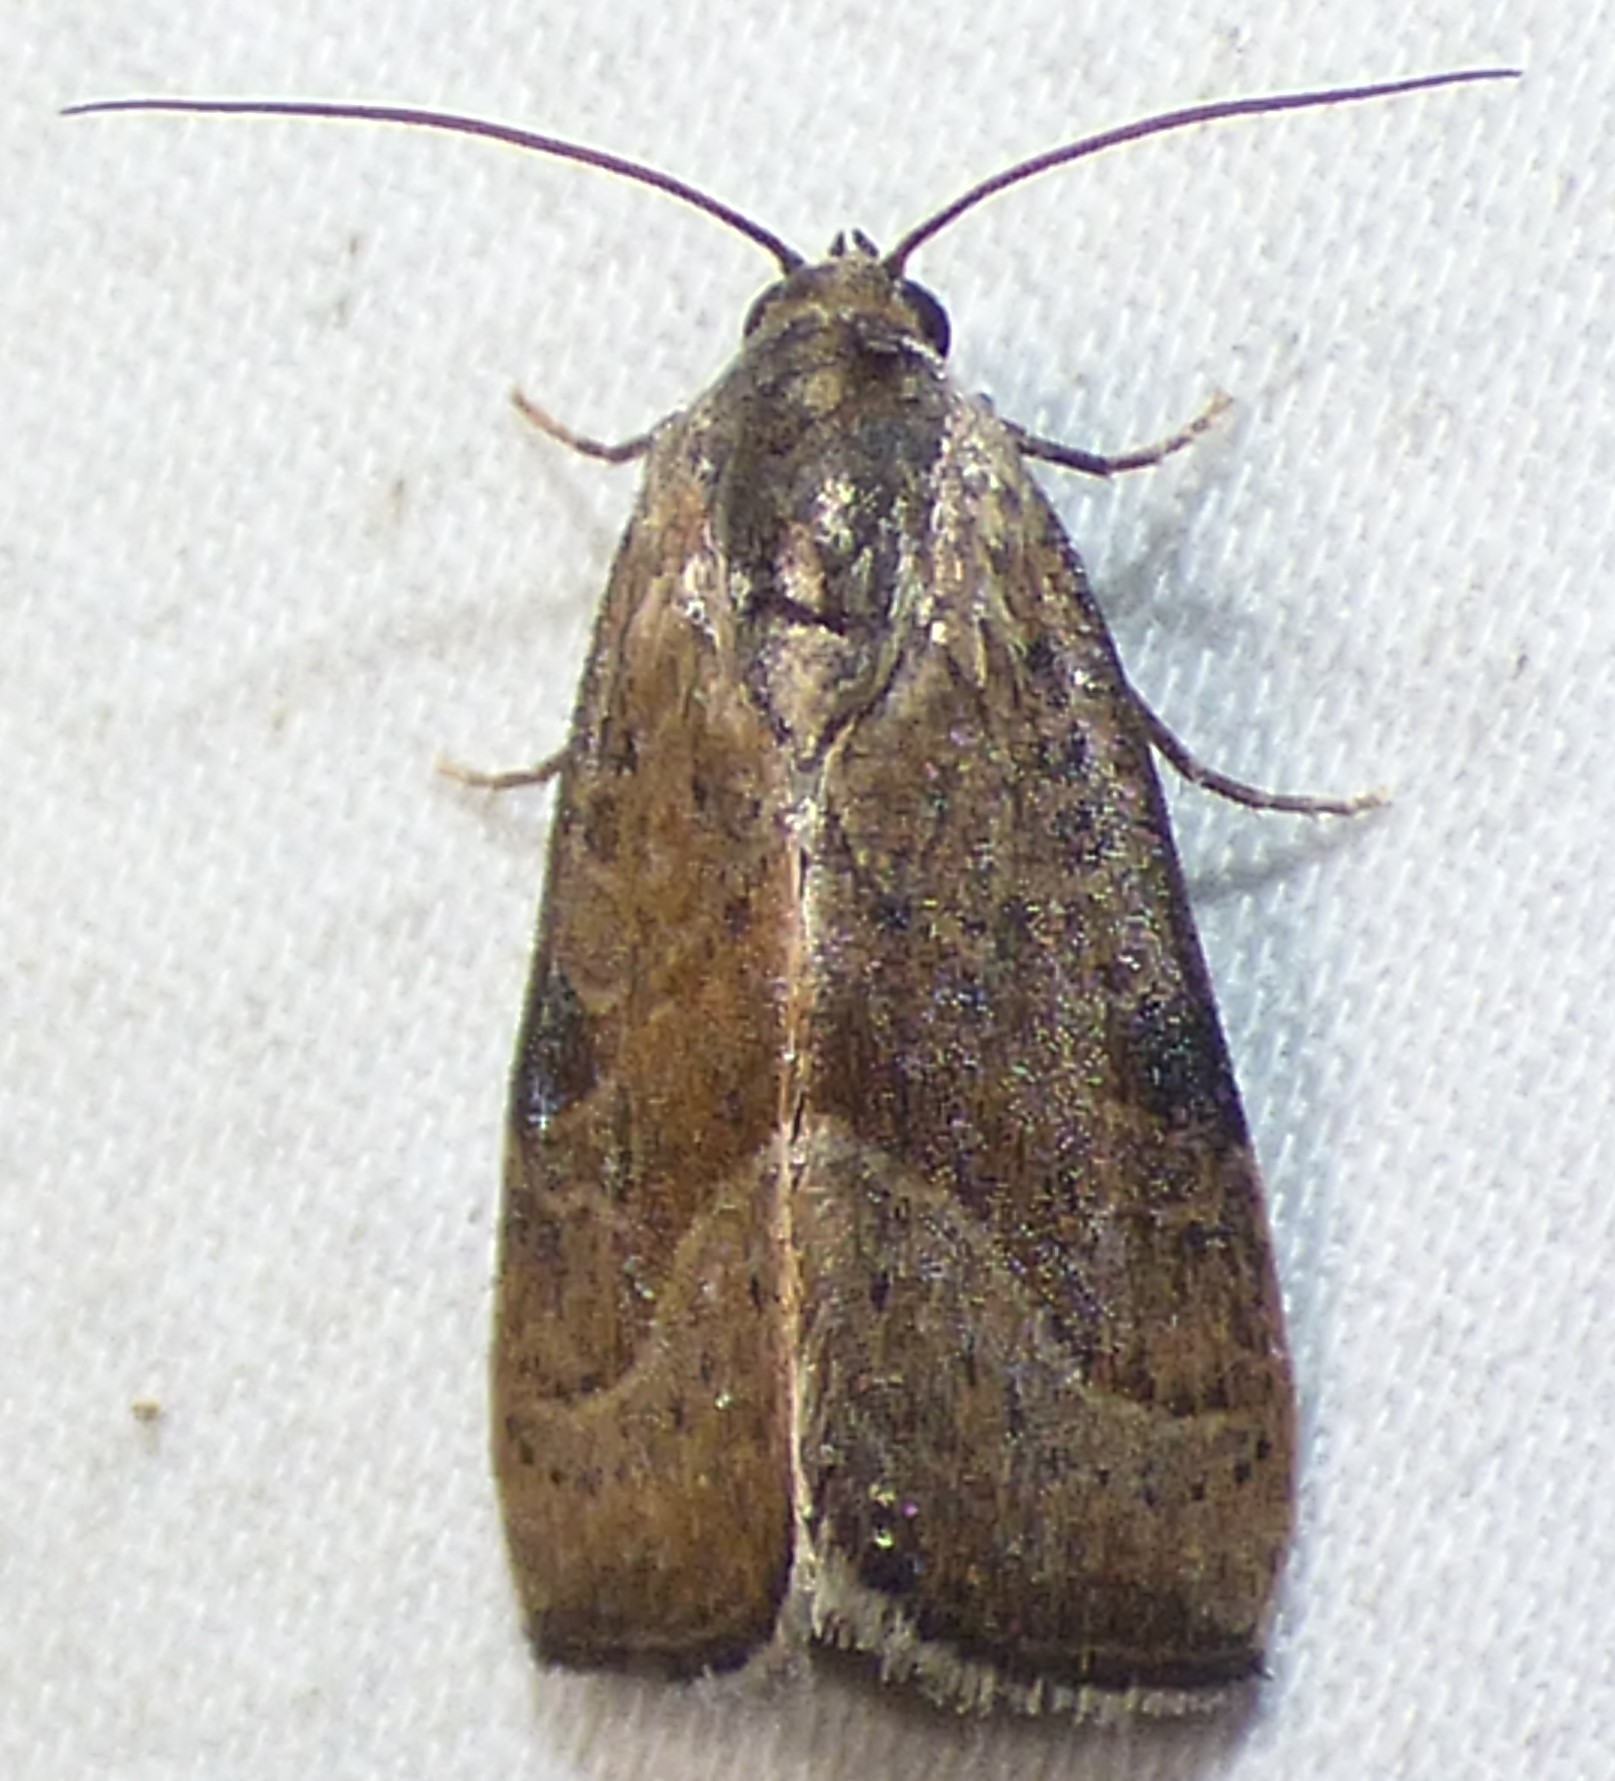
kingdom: Animalia
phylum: Arthropoda
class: Insecta
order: Lepidoptera
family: Noctuidae
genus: Galgula
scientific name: Galgula partita
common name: Wedgeling
